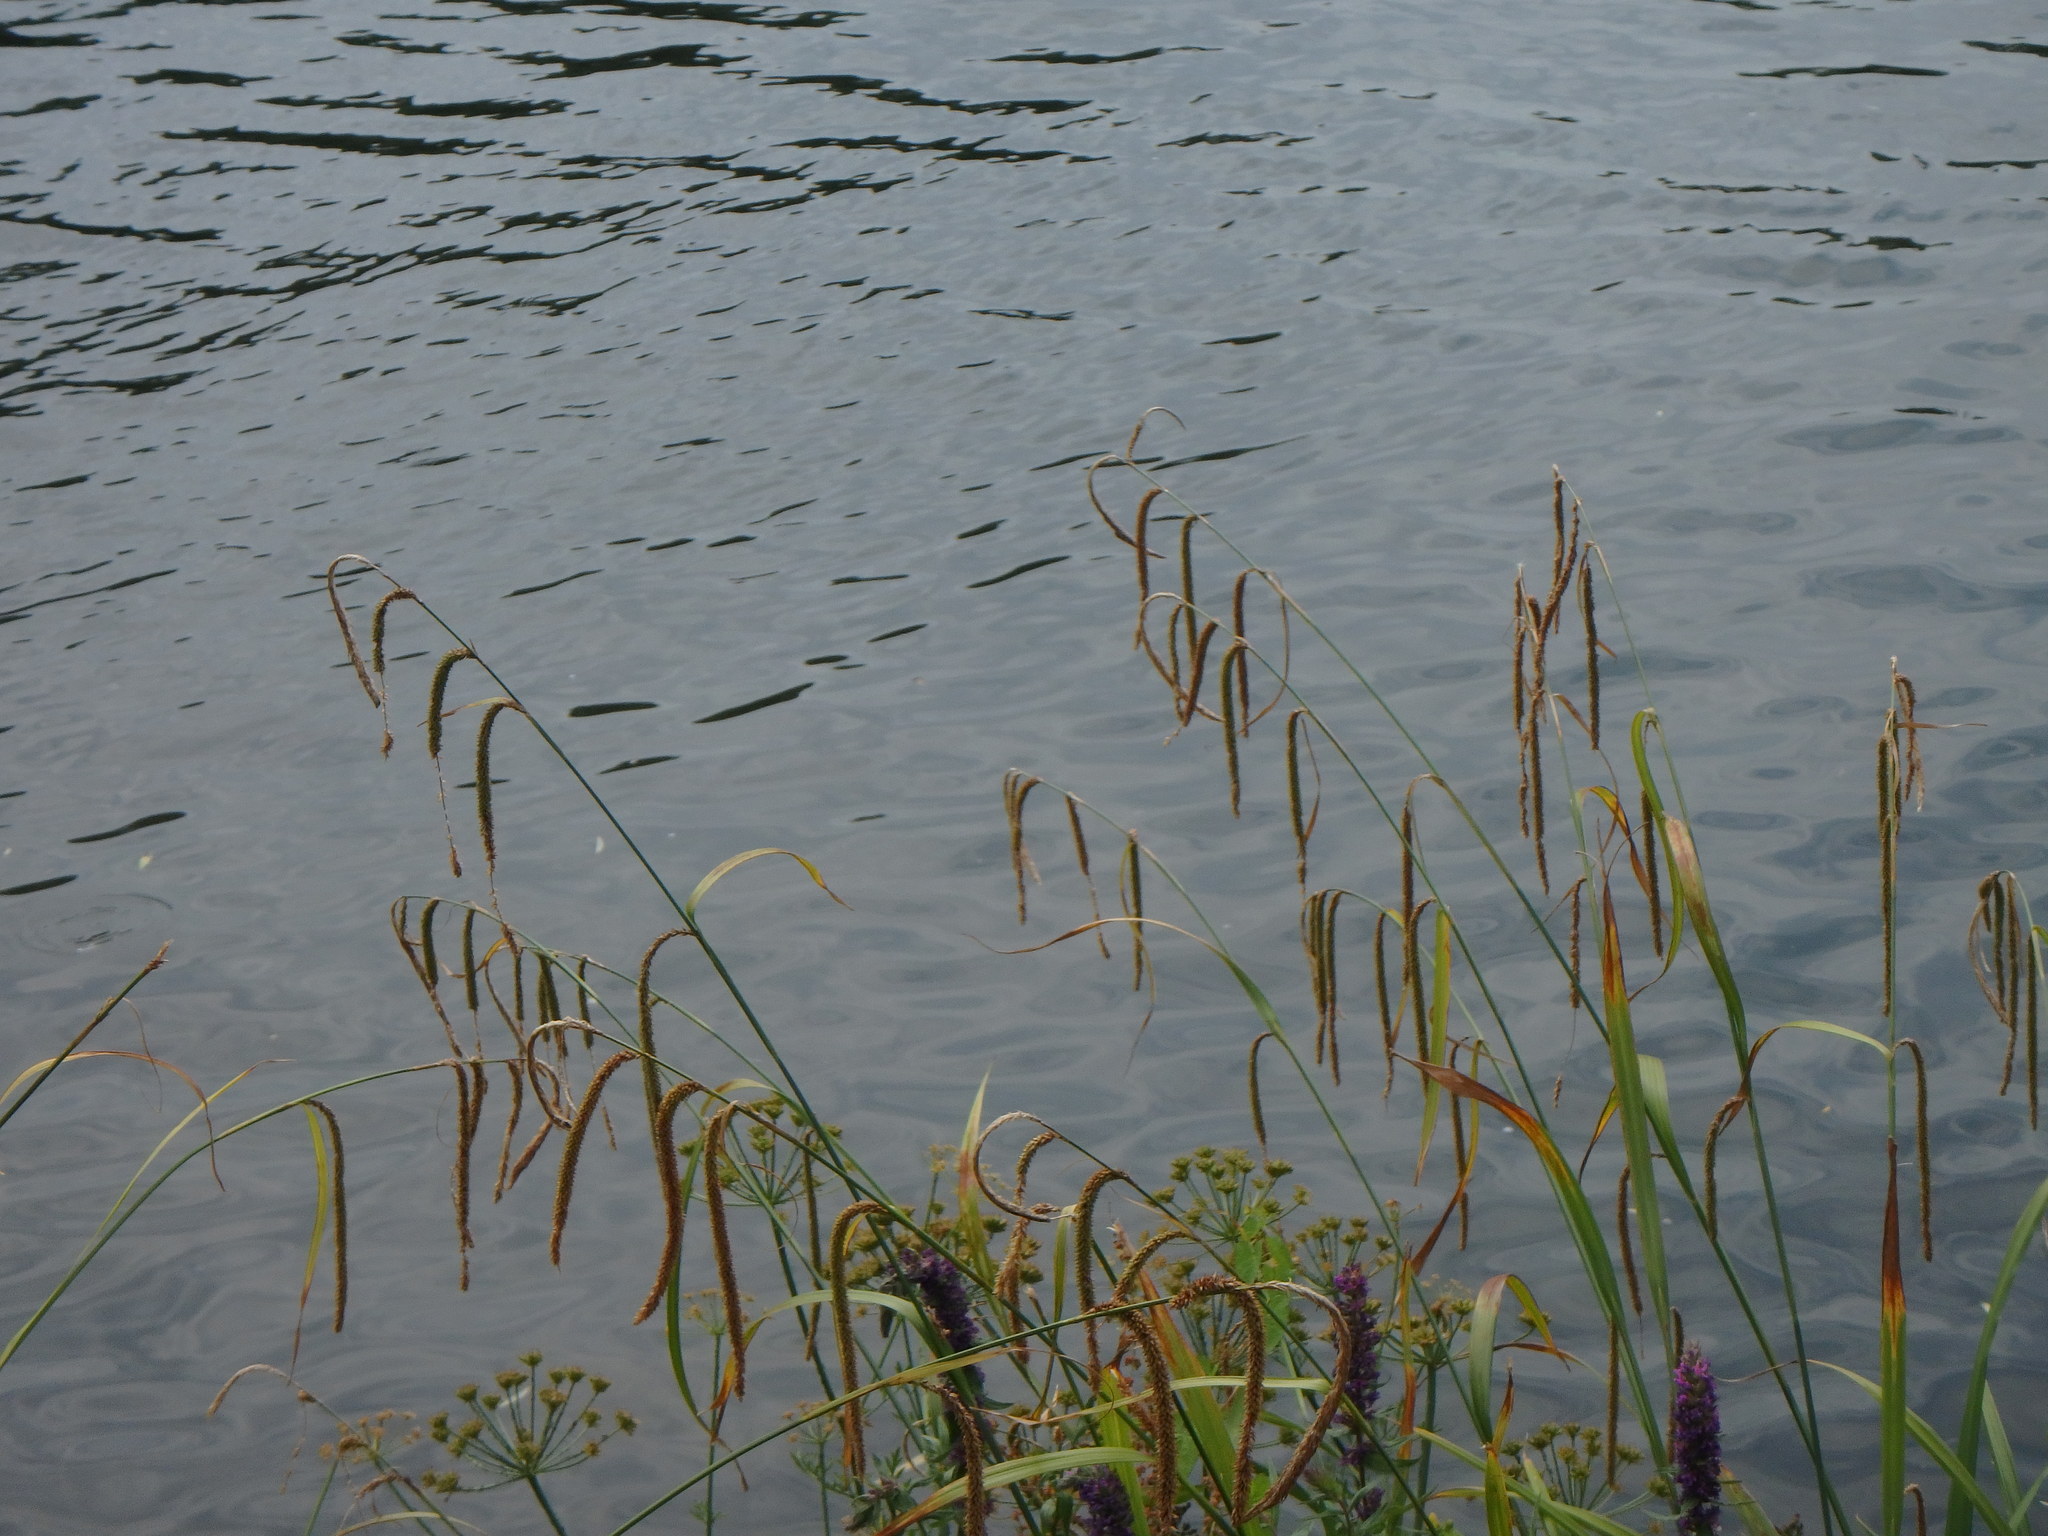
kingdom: Plantae
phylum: Tracheophyta
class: Liliopsida
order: Poales
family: Cyperaceae
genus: Carex
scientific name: Carex pendula
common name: Pendulous sedge
